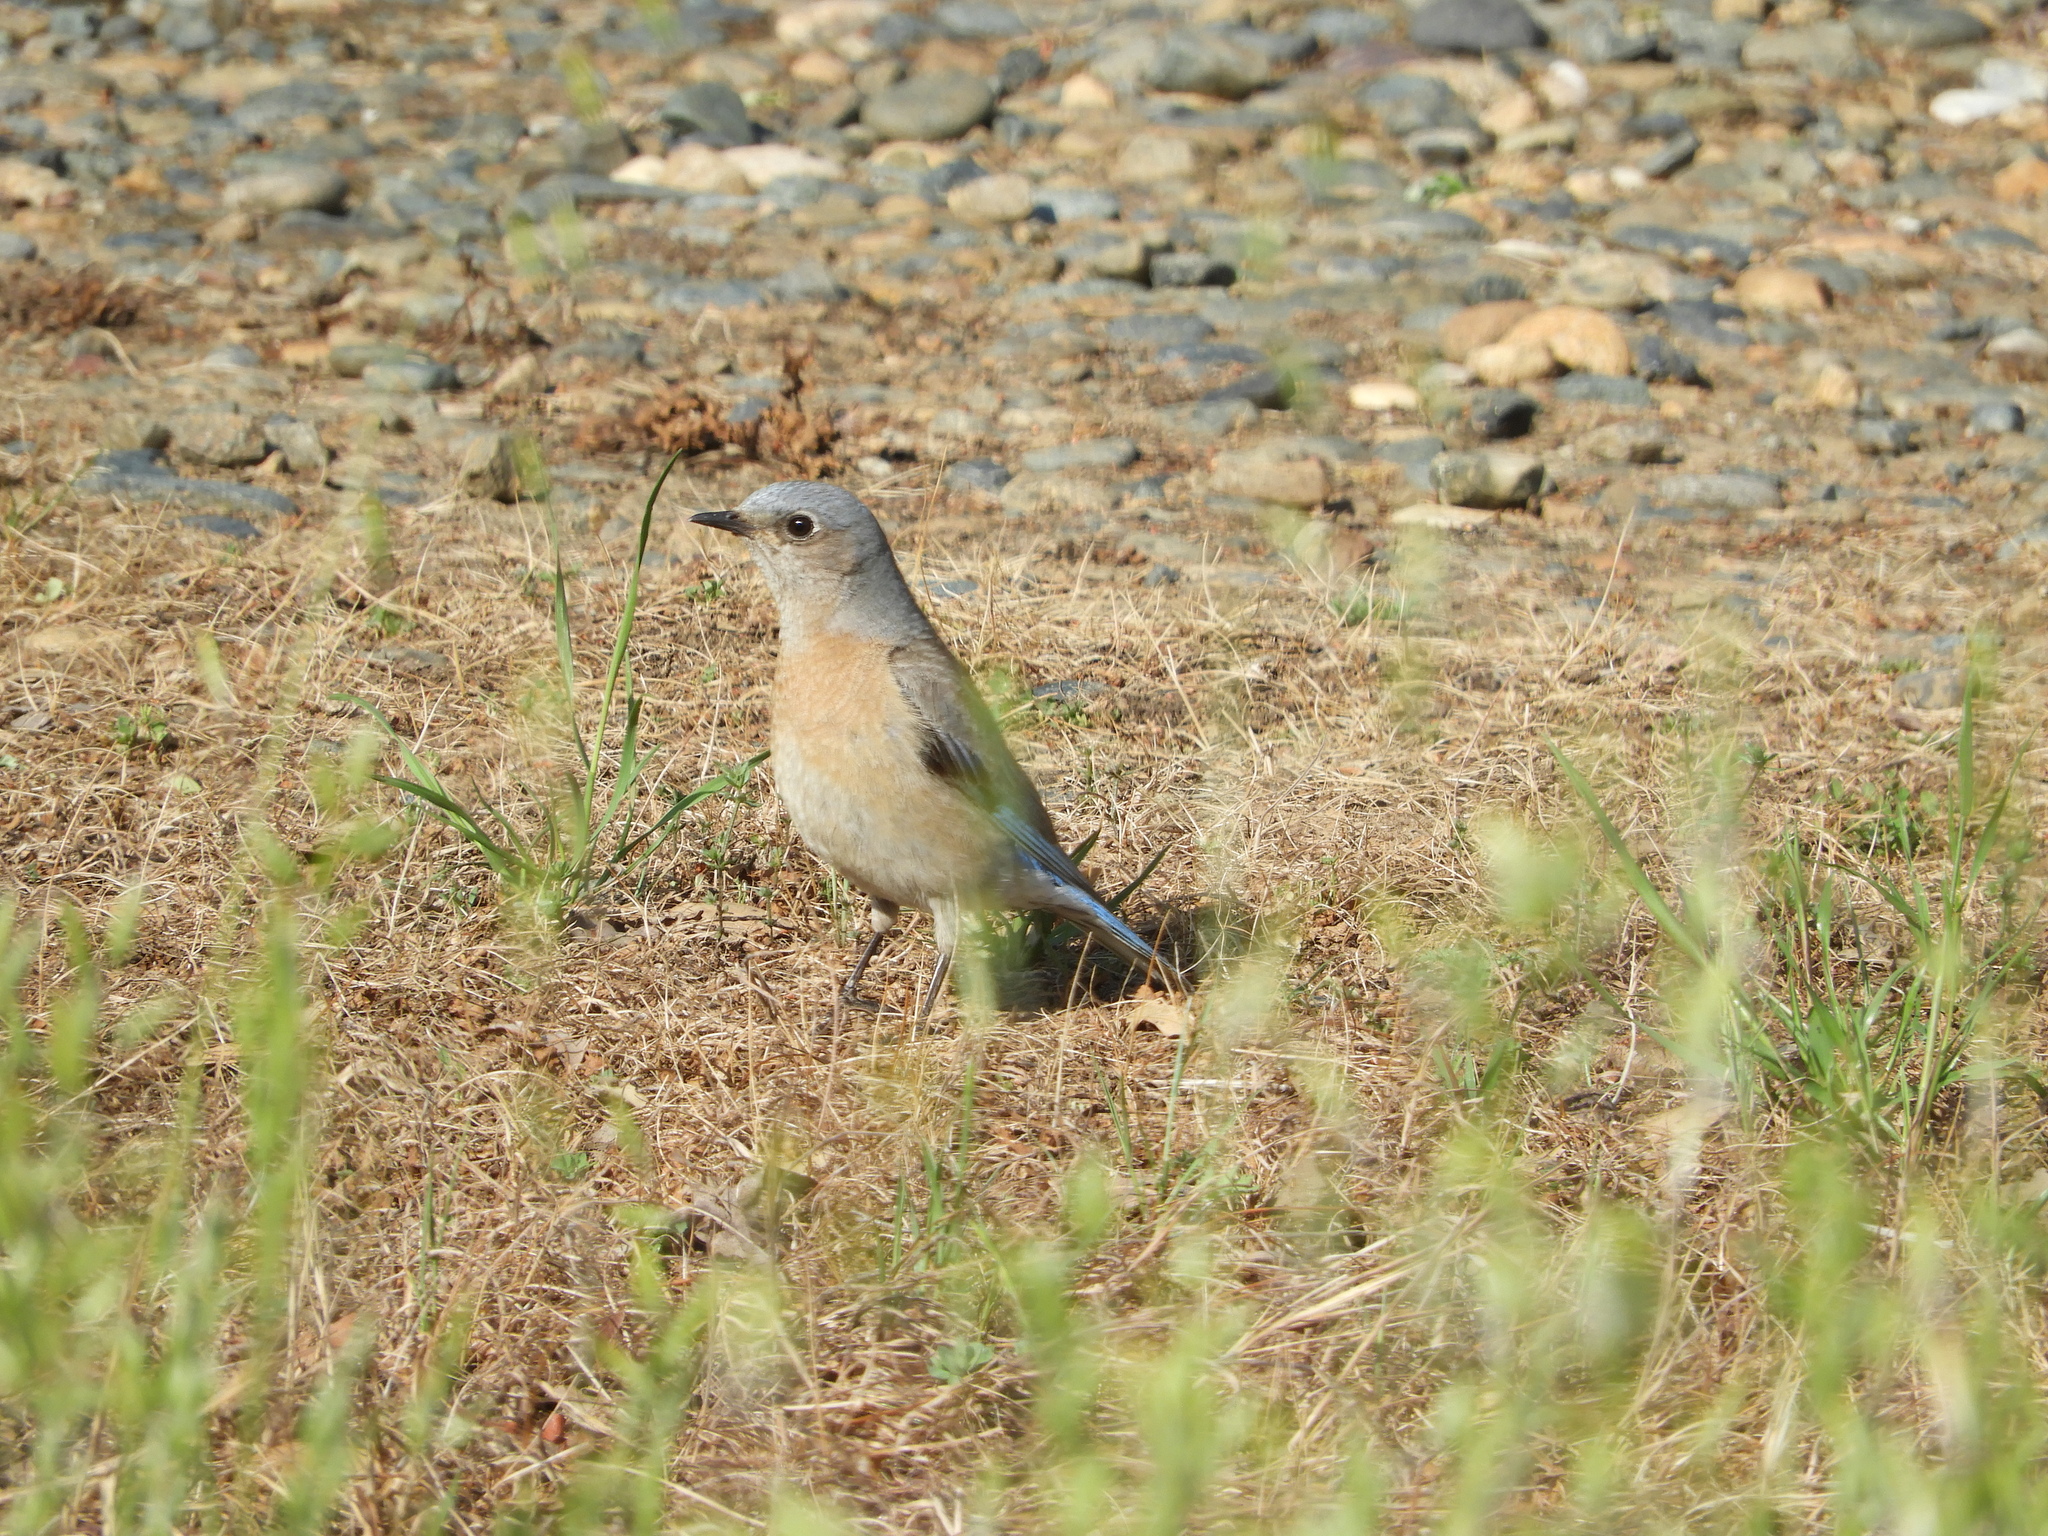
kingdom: Animalia
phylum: Chordata
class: Aves
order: Passeriformes
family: Turdidae
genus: Sialia
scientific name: Sialia mexicana
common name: Western bluebird
